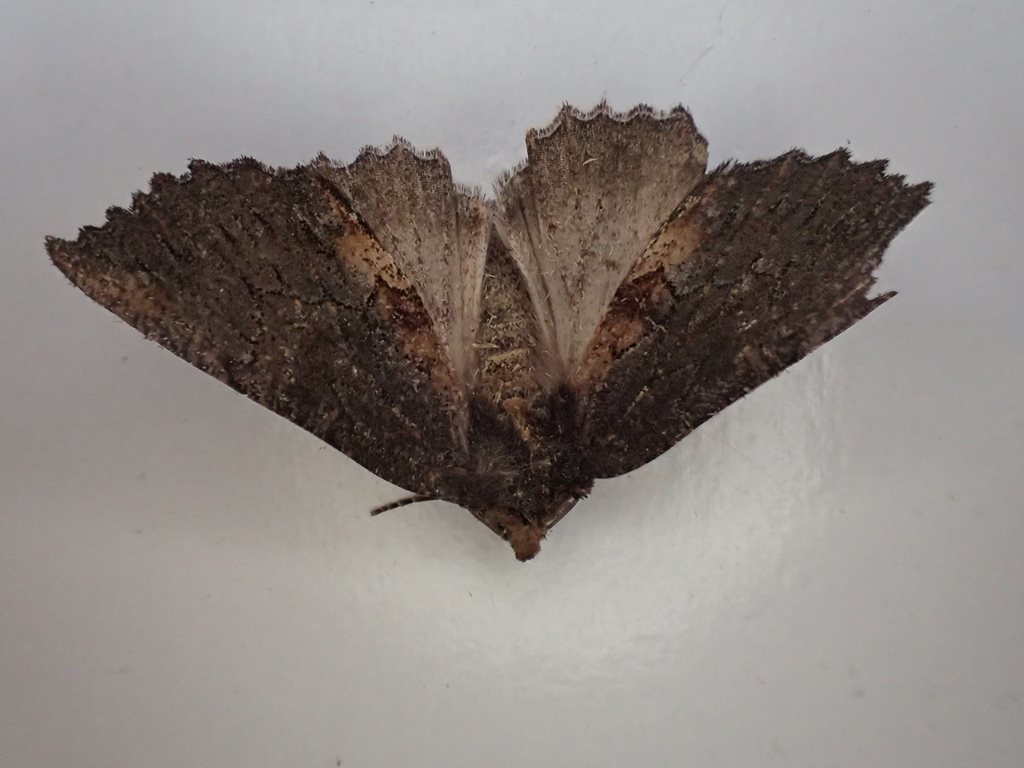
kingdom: Animalia
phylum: Arthropoda
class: Insecta
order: Lepidoptera
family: Geometridae
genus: Nisista
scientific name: Nisista serrata
